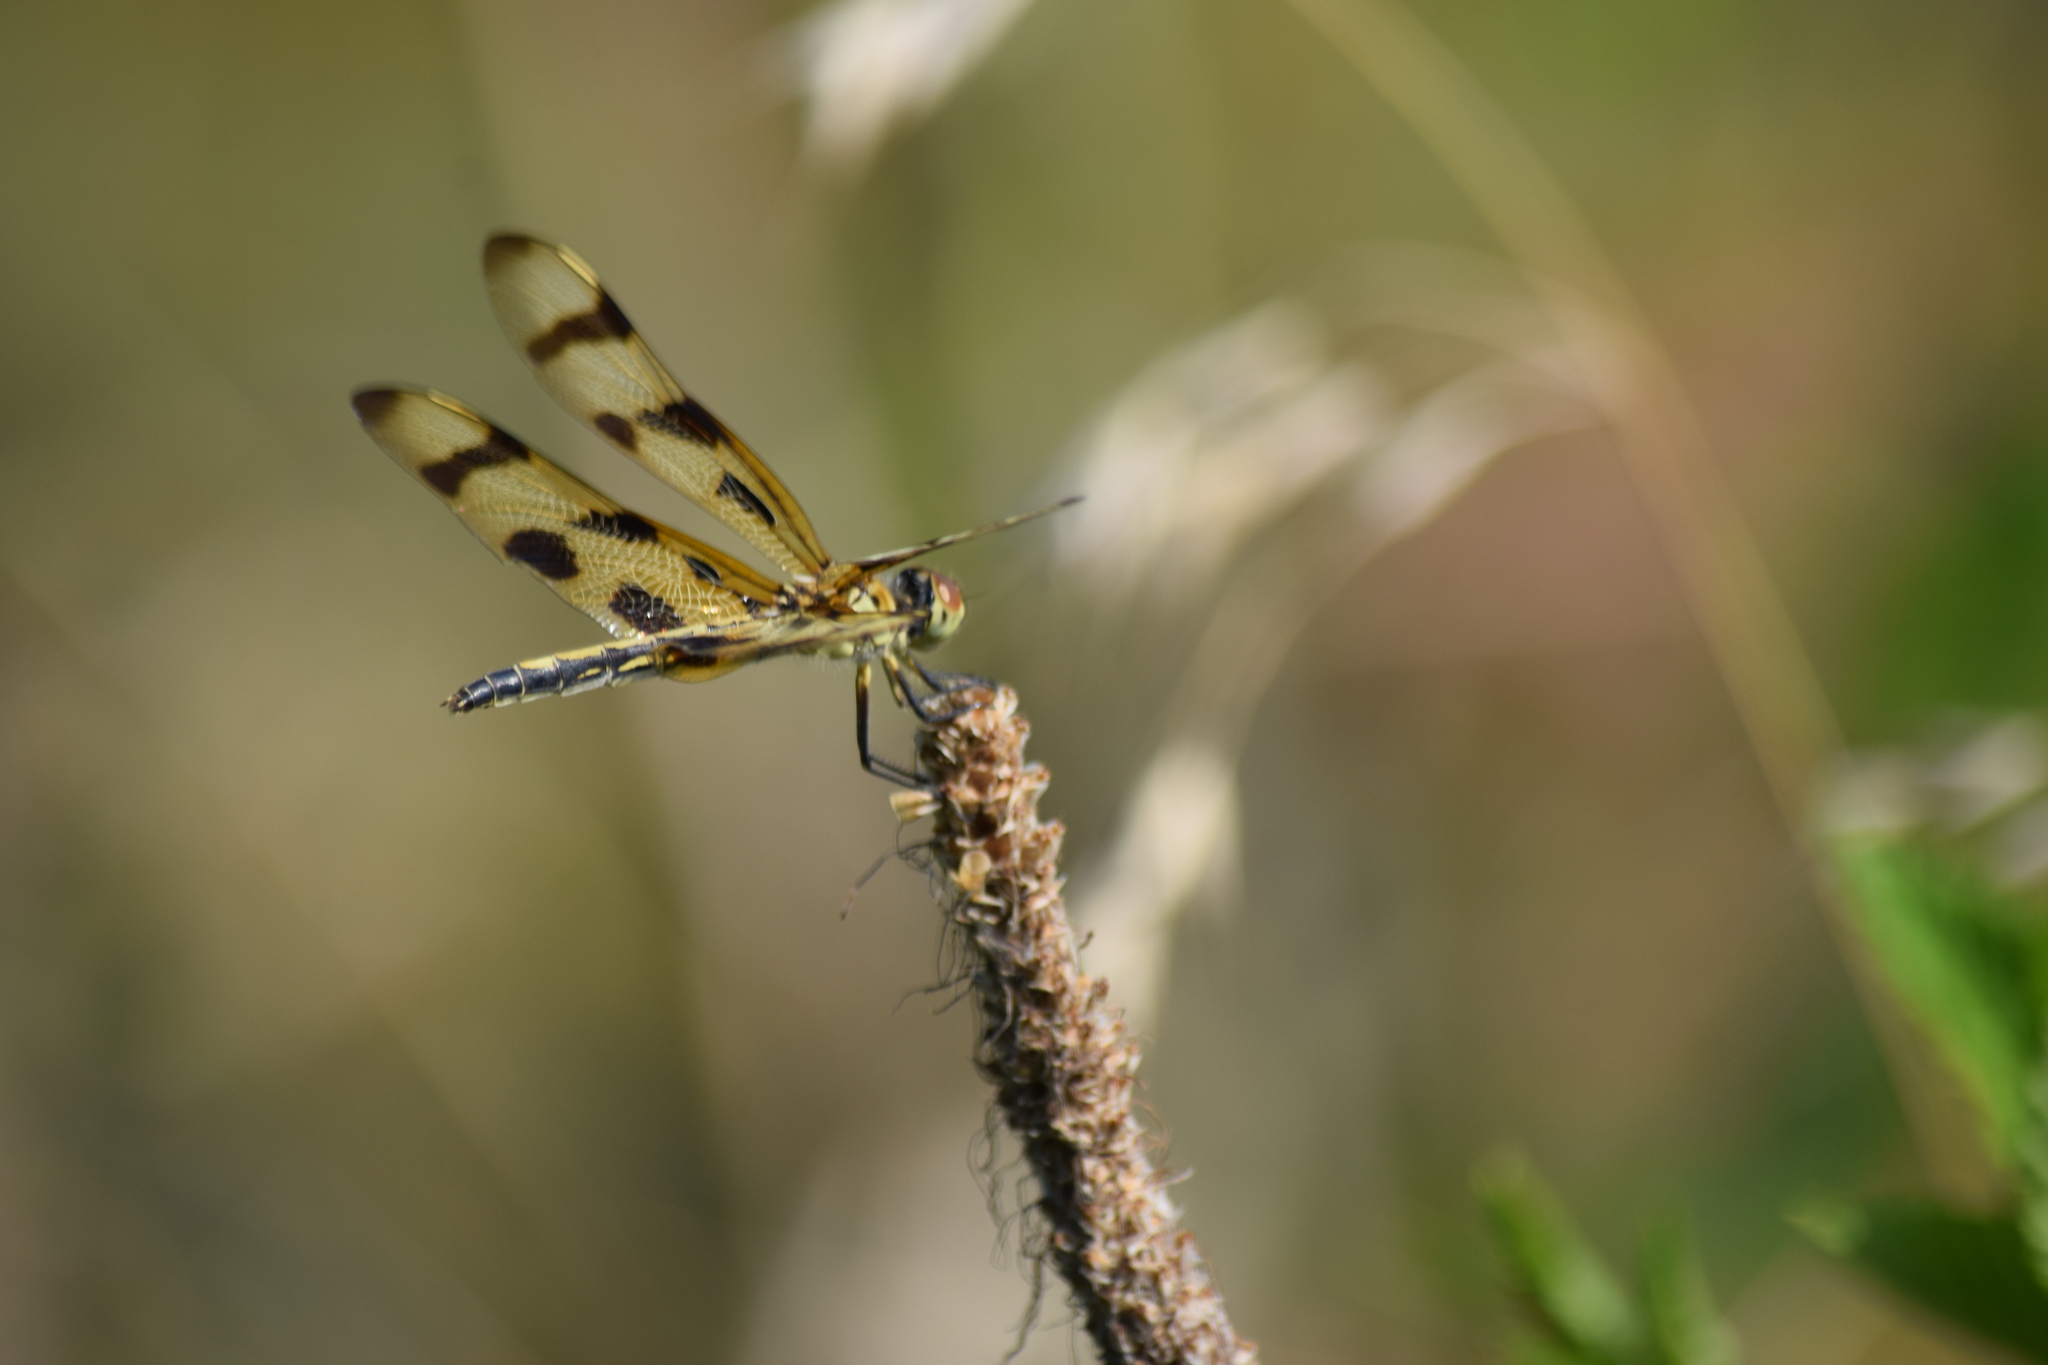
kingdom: Animalia
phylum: Arthropoda
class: Insecta
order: Odonata
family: Libellulidae
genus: Celithemis
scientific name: Celithemis eponina
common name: Halloween pennant
